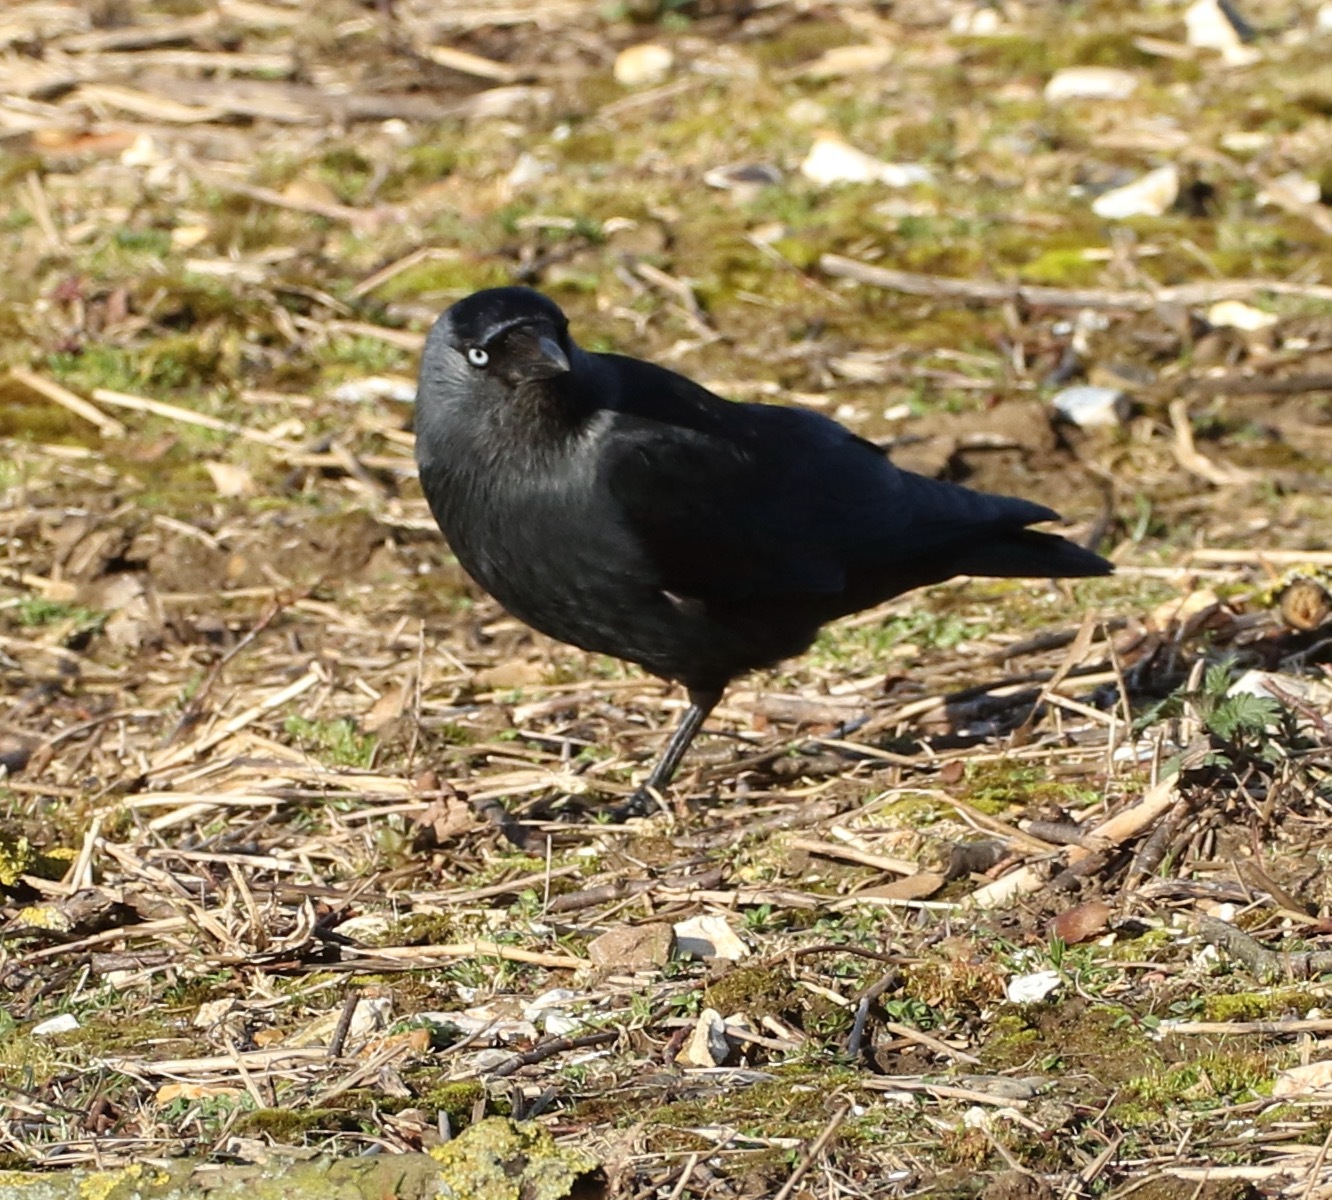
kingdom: Animalia
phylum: Chordata
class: Aves
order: Passeriformes
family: Corvidae
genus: Coloeus
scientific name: Coloeus monedula
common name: Western jackdaw
